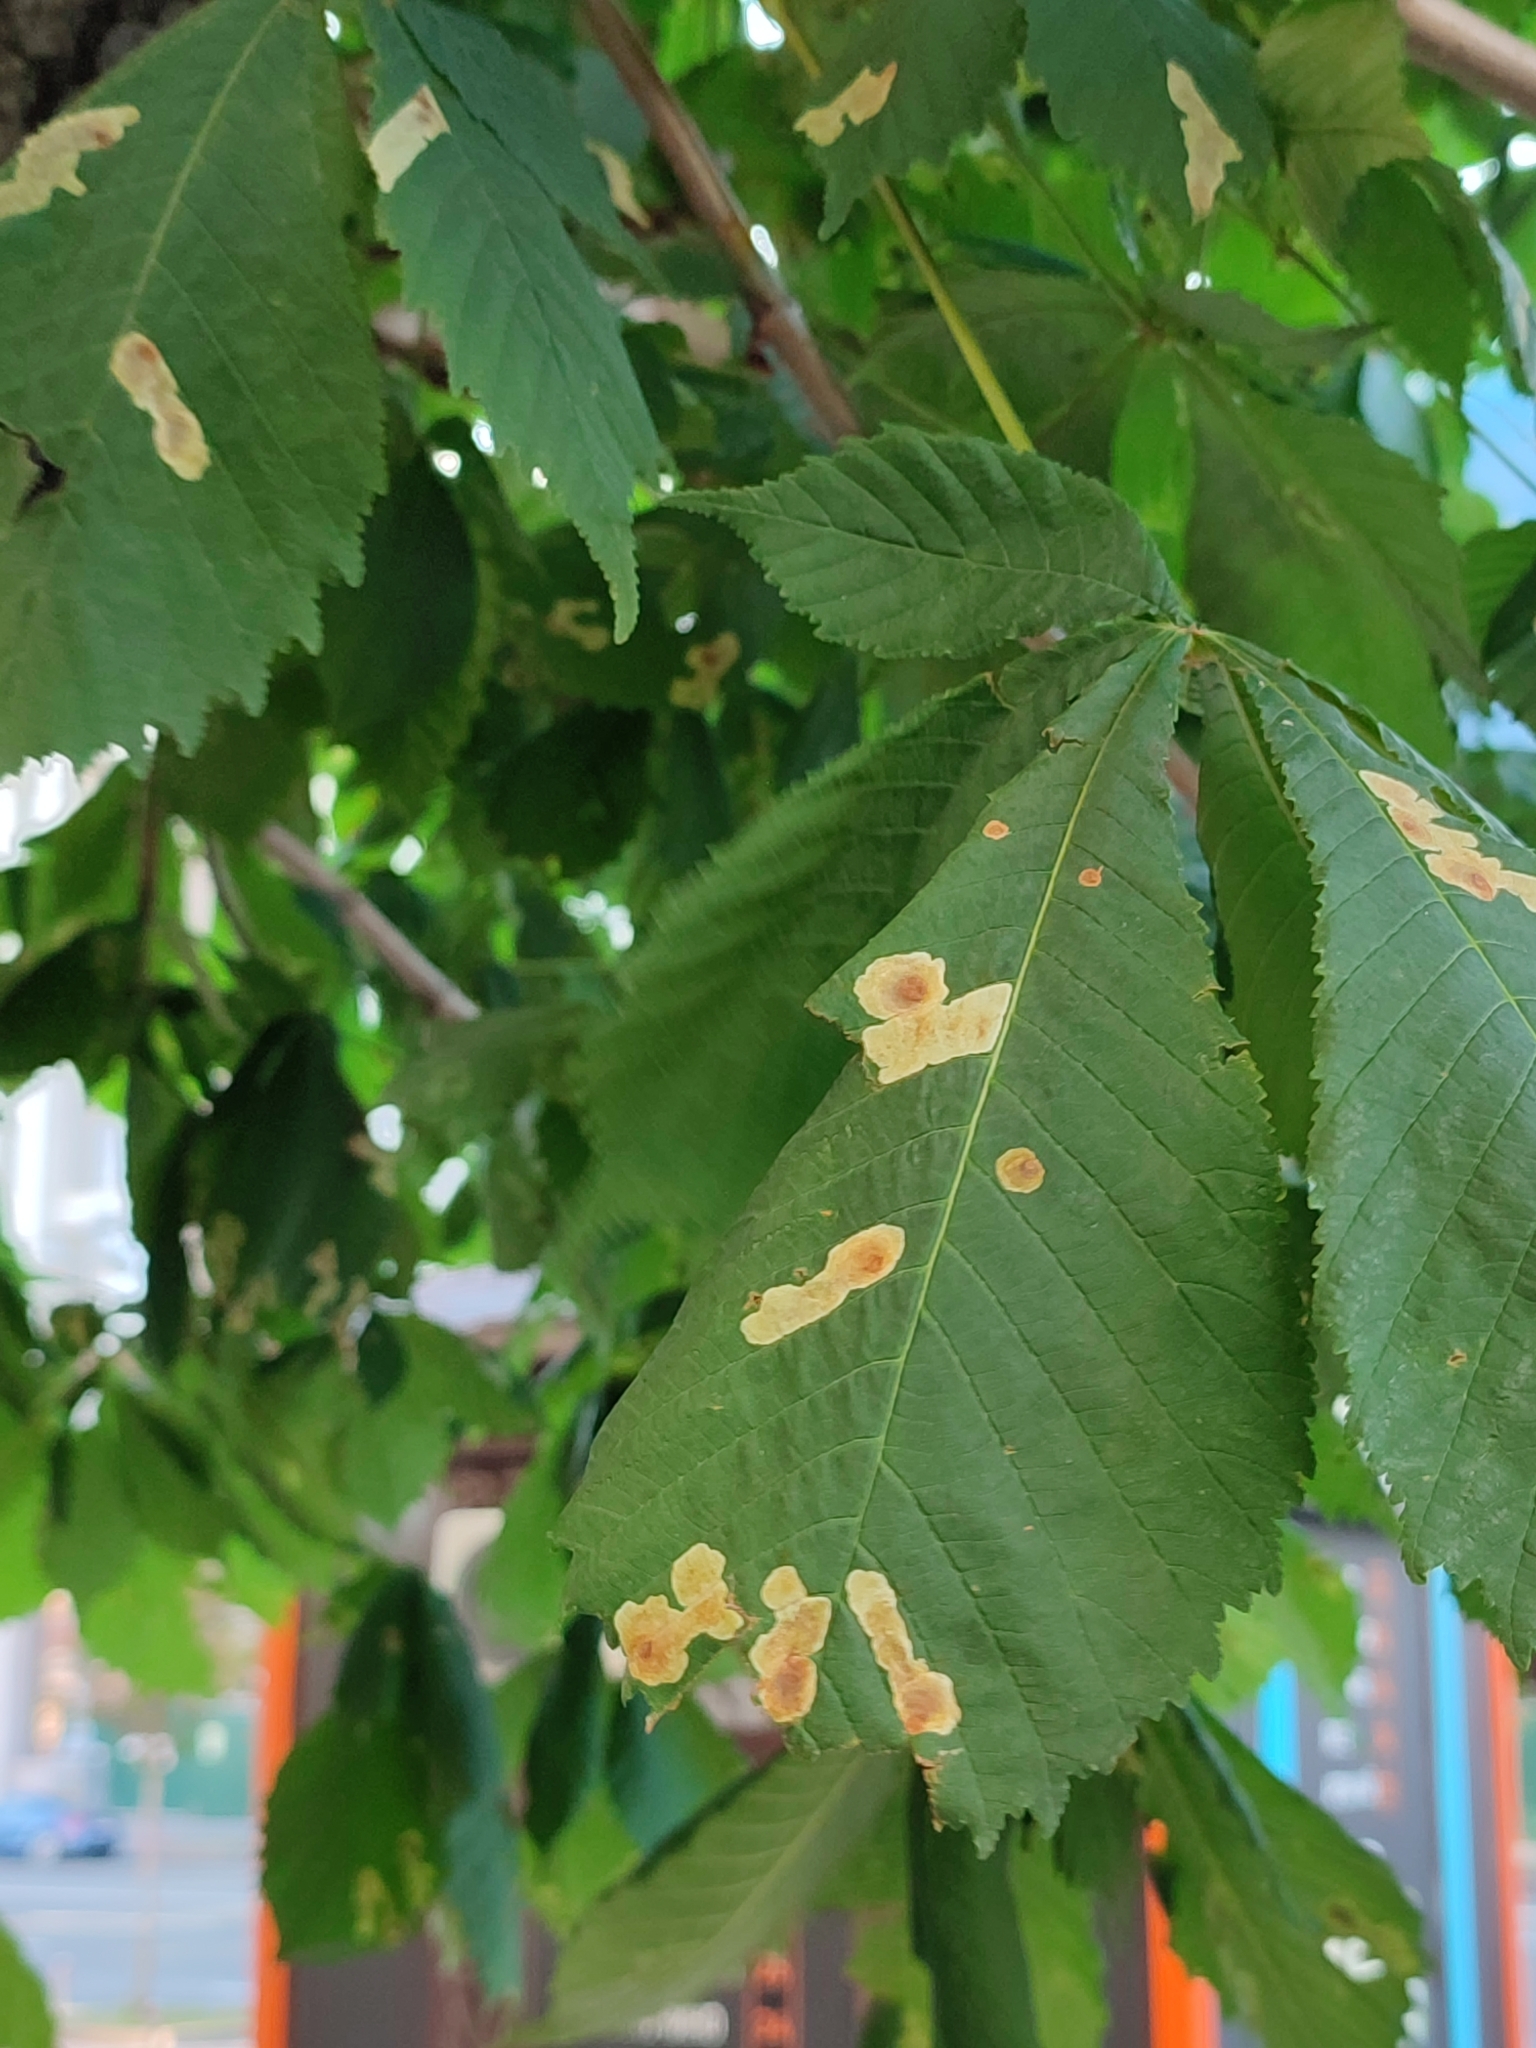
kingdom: Animalia
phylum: Arthropoda
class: Insecta
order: Lepidoptera
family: Gracillariidae
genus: Cameraria
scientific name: Cameraria ohridella
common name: Horse-chestnut leaf-miner
